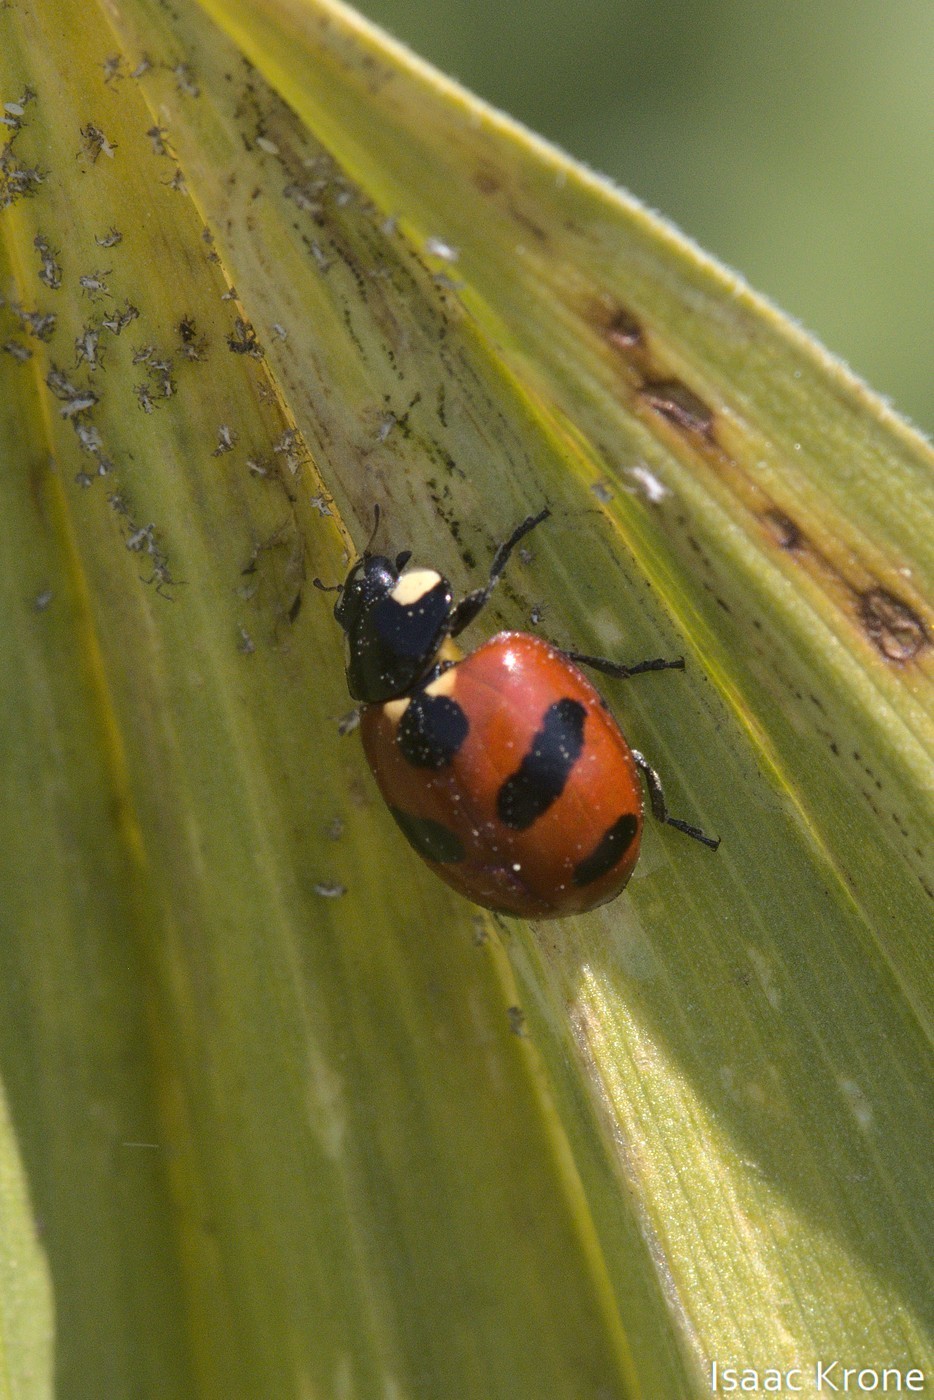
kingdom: Animalia
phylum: Arthropoda
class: Insecta
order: Coleoptera
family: Coccinellidae
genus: Coccinella
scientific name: Coccinella monticola
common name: Mountain lady beetle
